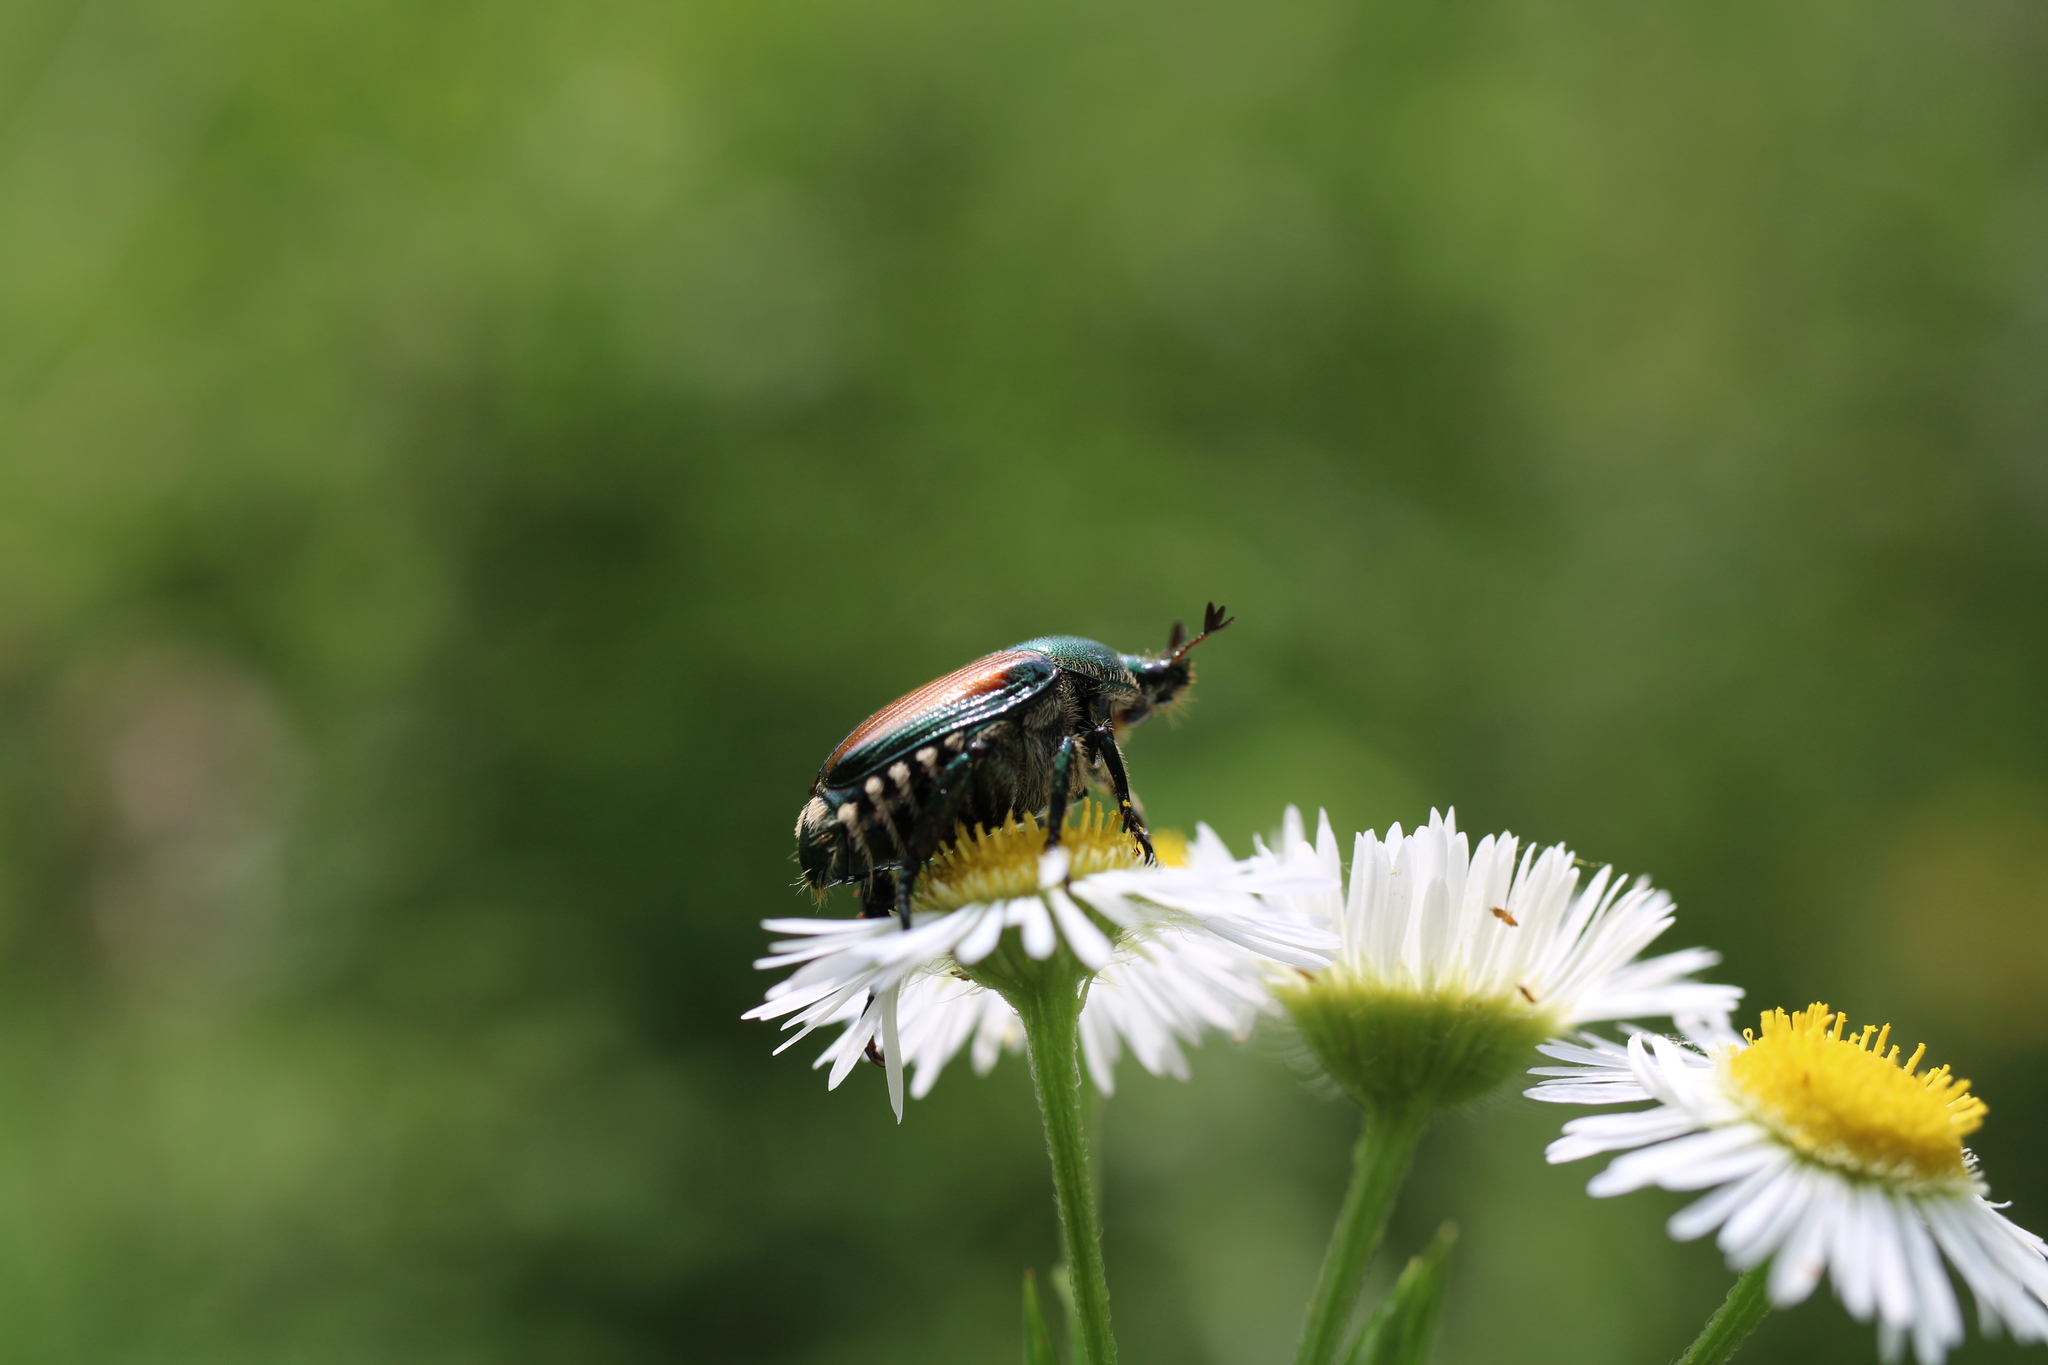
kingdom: Animalia
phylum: Arthropoda
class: Insecta
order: Coleoptera
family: Scarabaeidae
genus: Popillia
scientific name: Popillia japonica
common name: Japanese beetle
